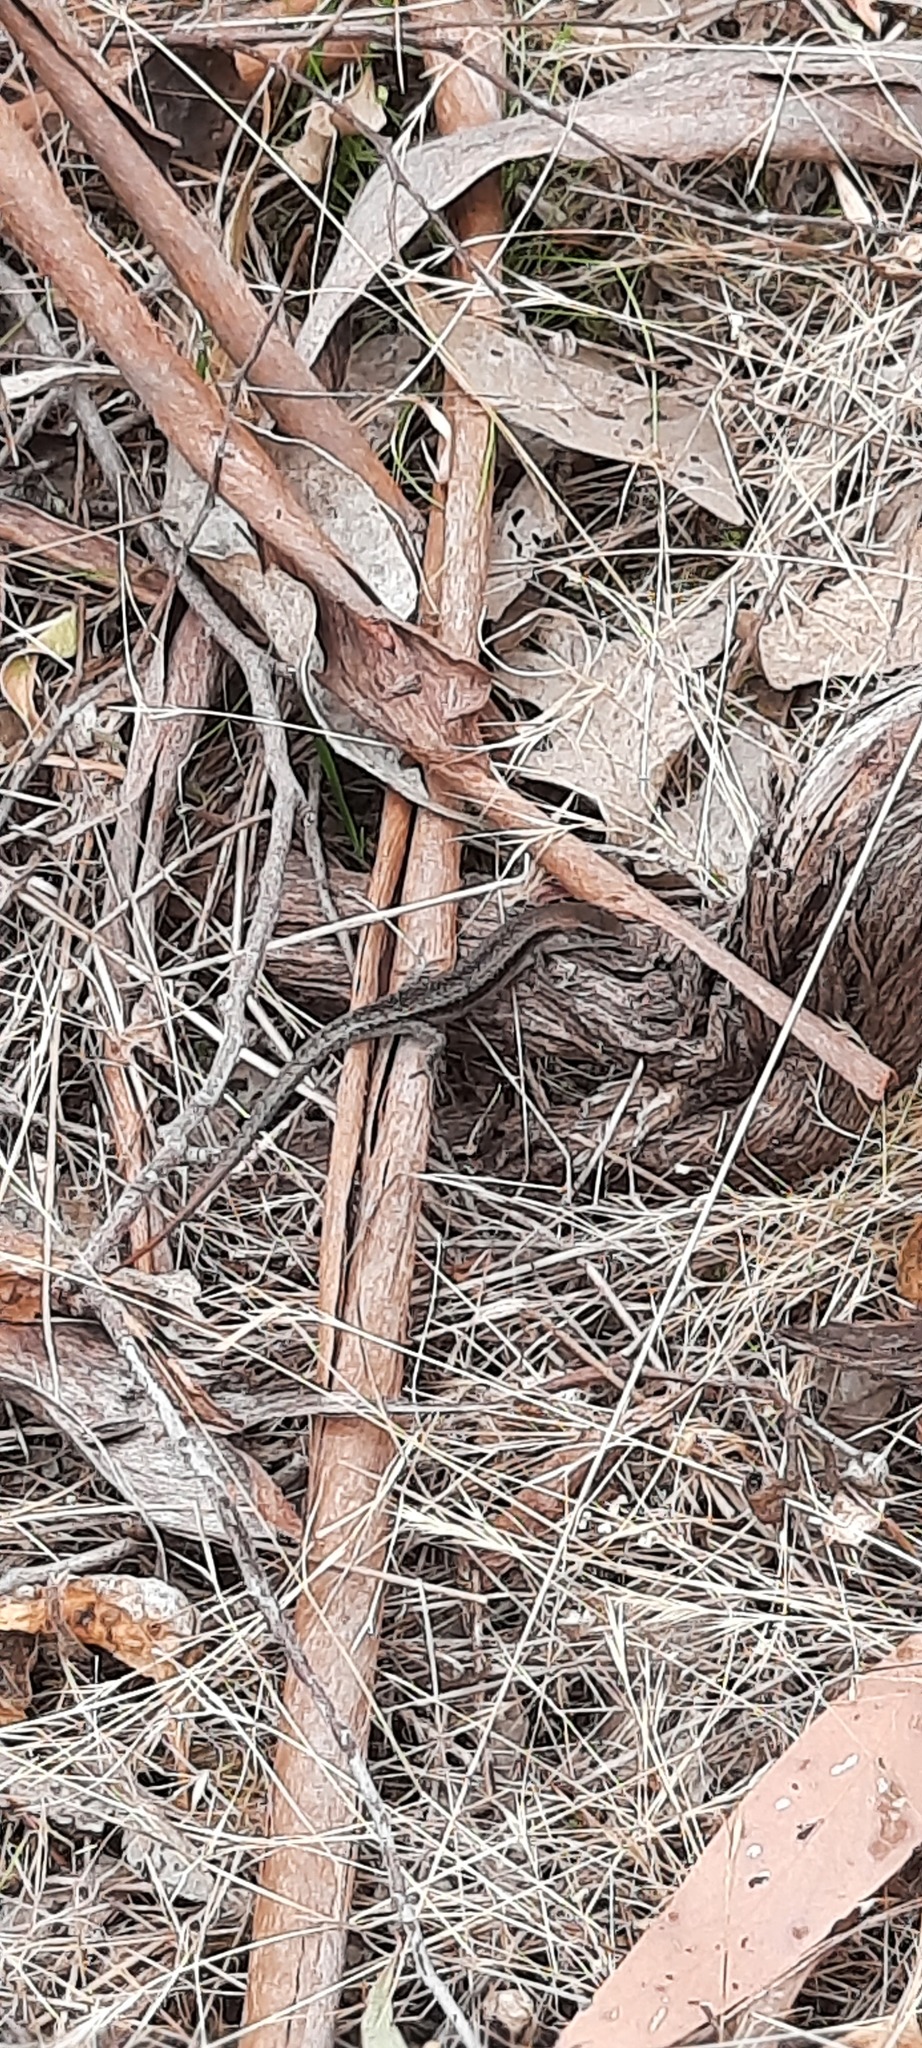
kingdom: Animalia
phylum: Chordata
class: Squamata
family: Scincidae
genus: Lampropholis
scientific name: Lampropholis guichenoti
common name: Garden skink
